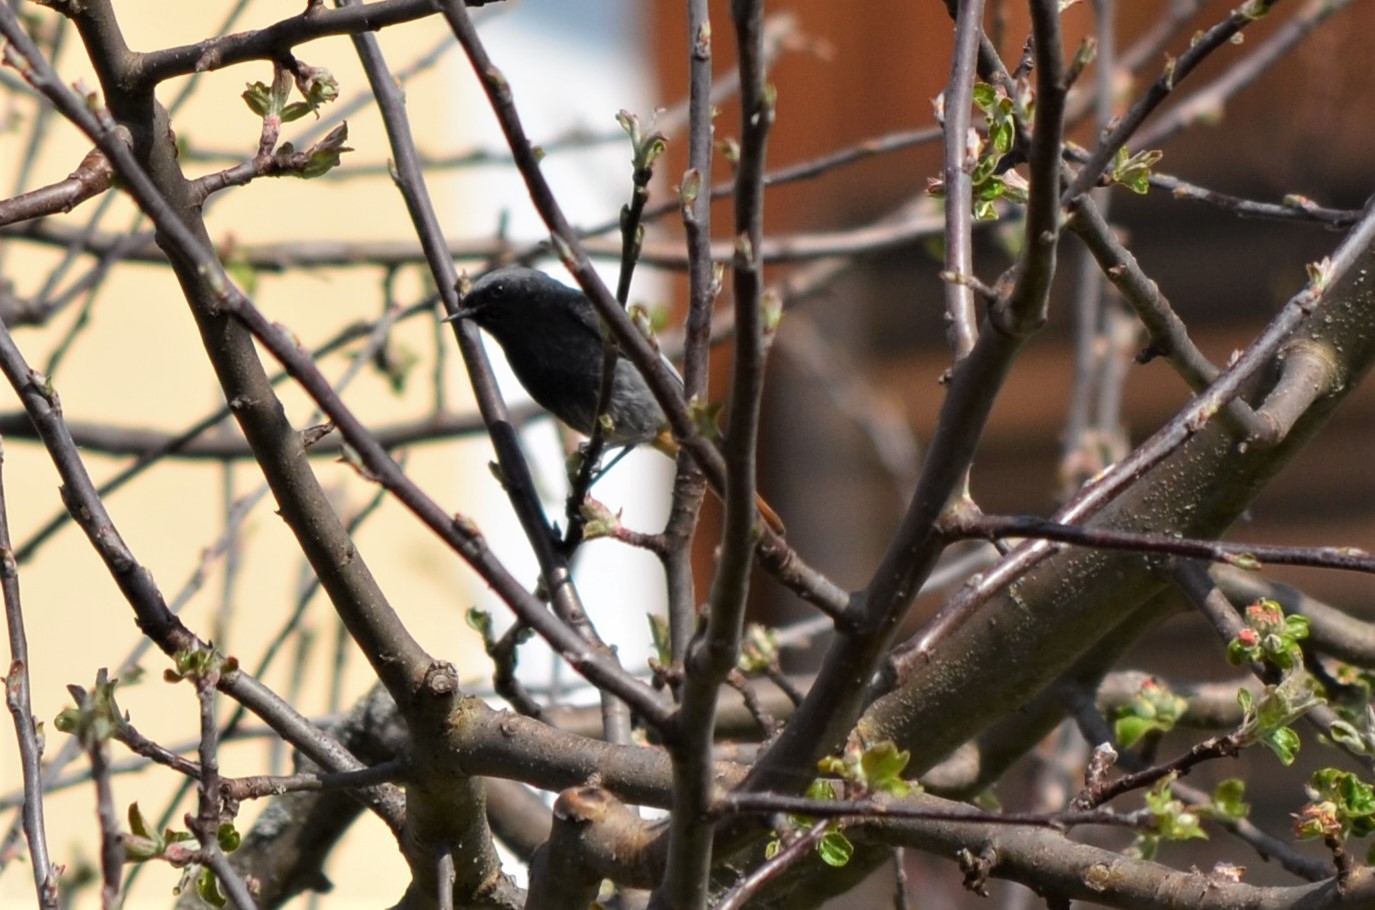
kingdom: Animalia
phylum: Chordata
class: Aves
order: Passeriformes
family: Muscicapidae
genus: Phoenicurus
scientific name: Phoenicurus ochruros
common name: Black redstart
